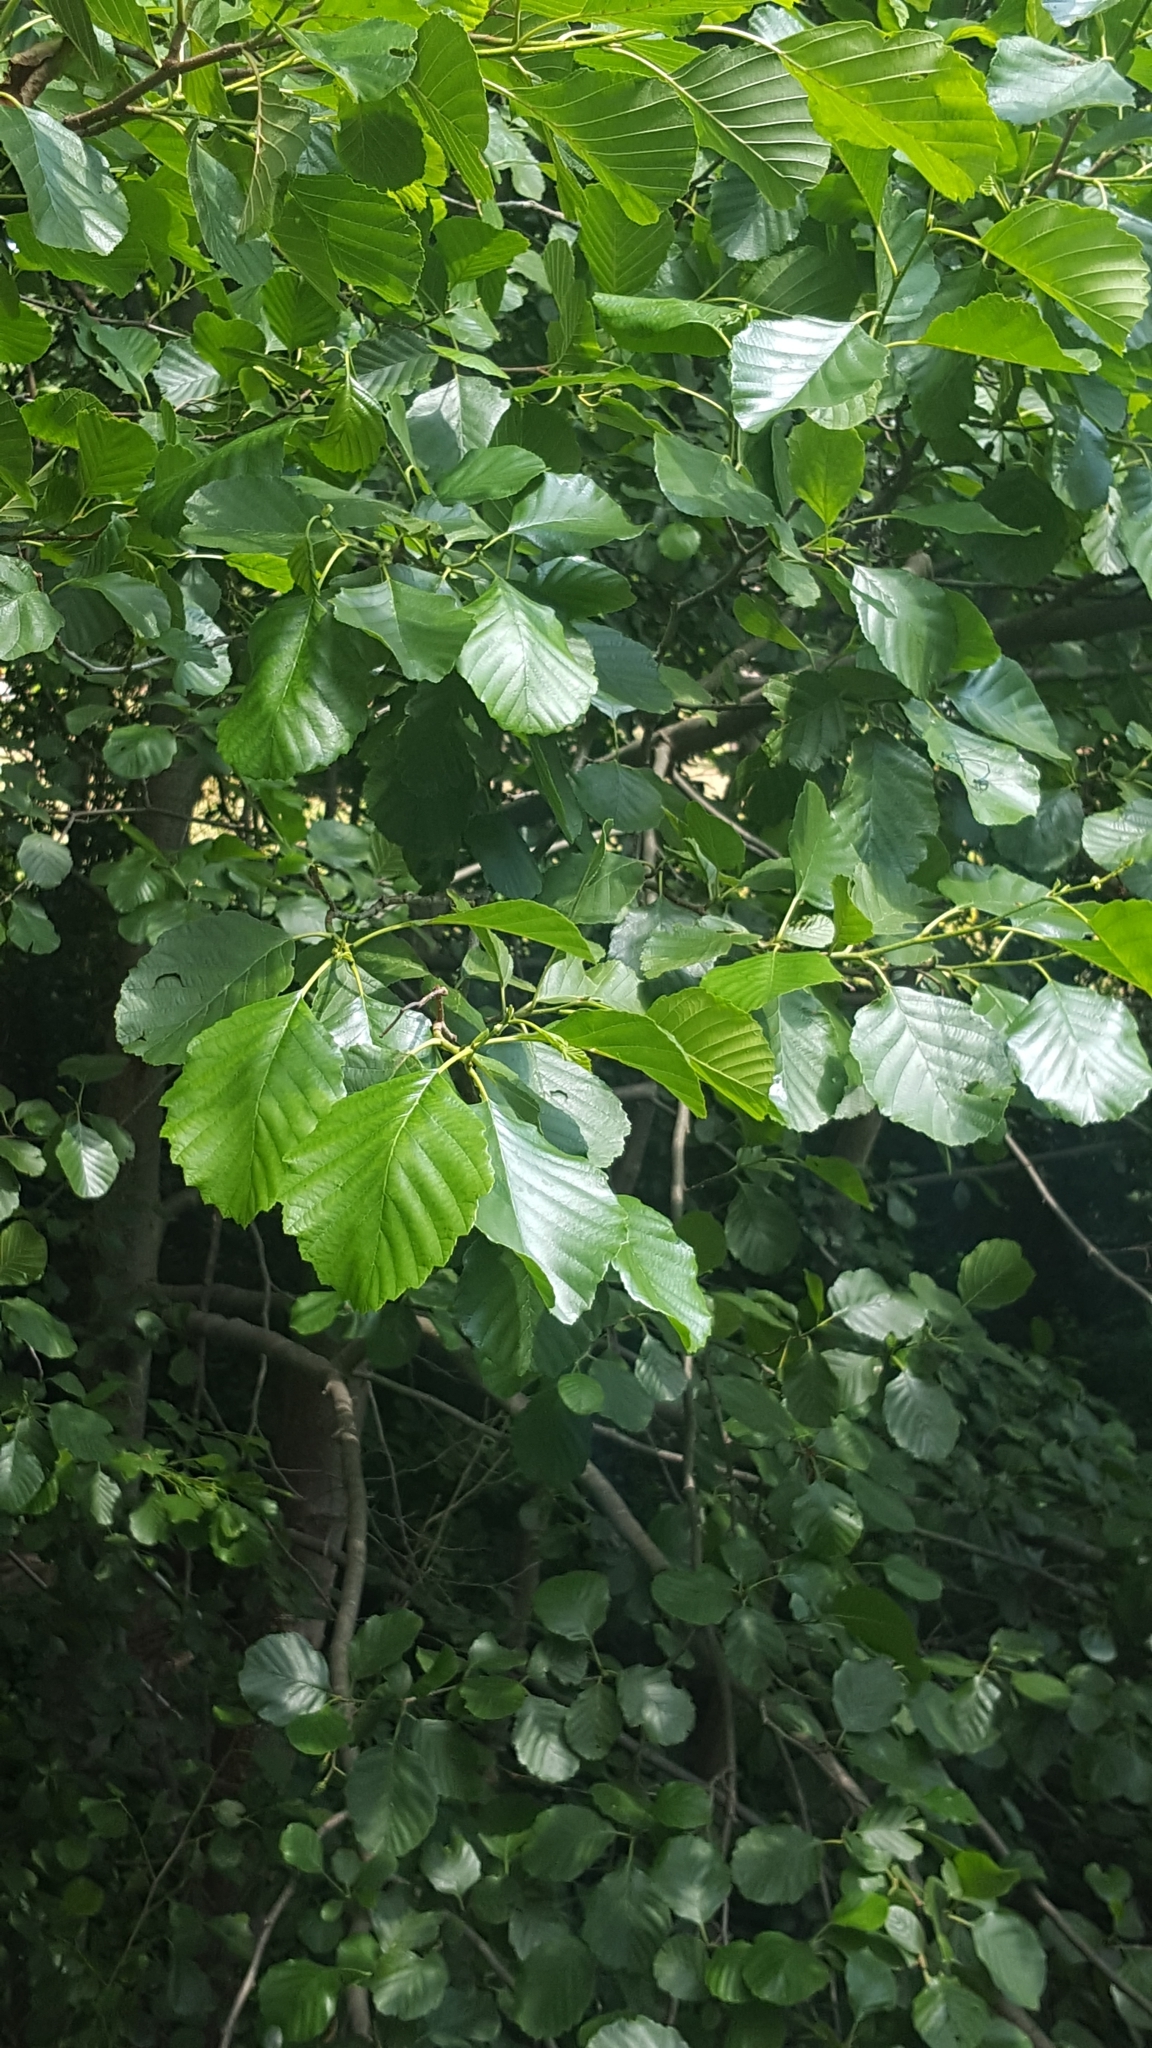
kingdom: Plantae
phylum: Tracheophyta
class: Magnoliopsida
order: Fagales
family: Betulaceae
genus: Alnus
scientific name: Alnus glutinosa
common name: Black alder
